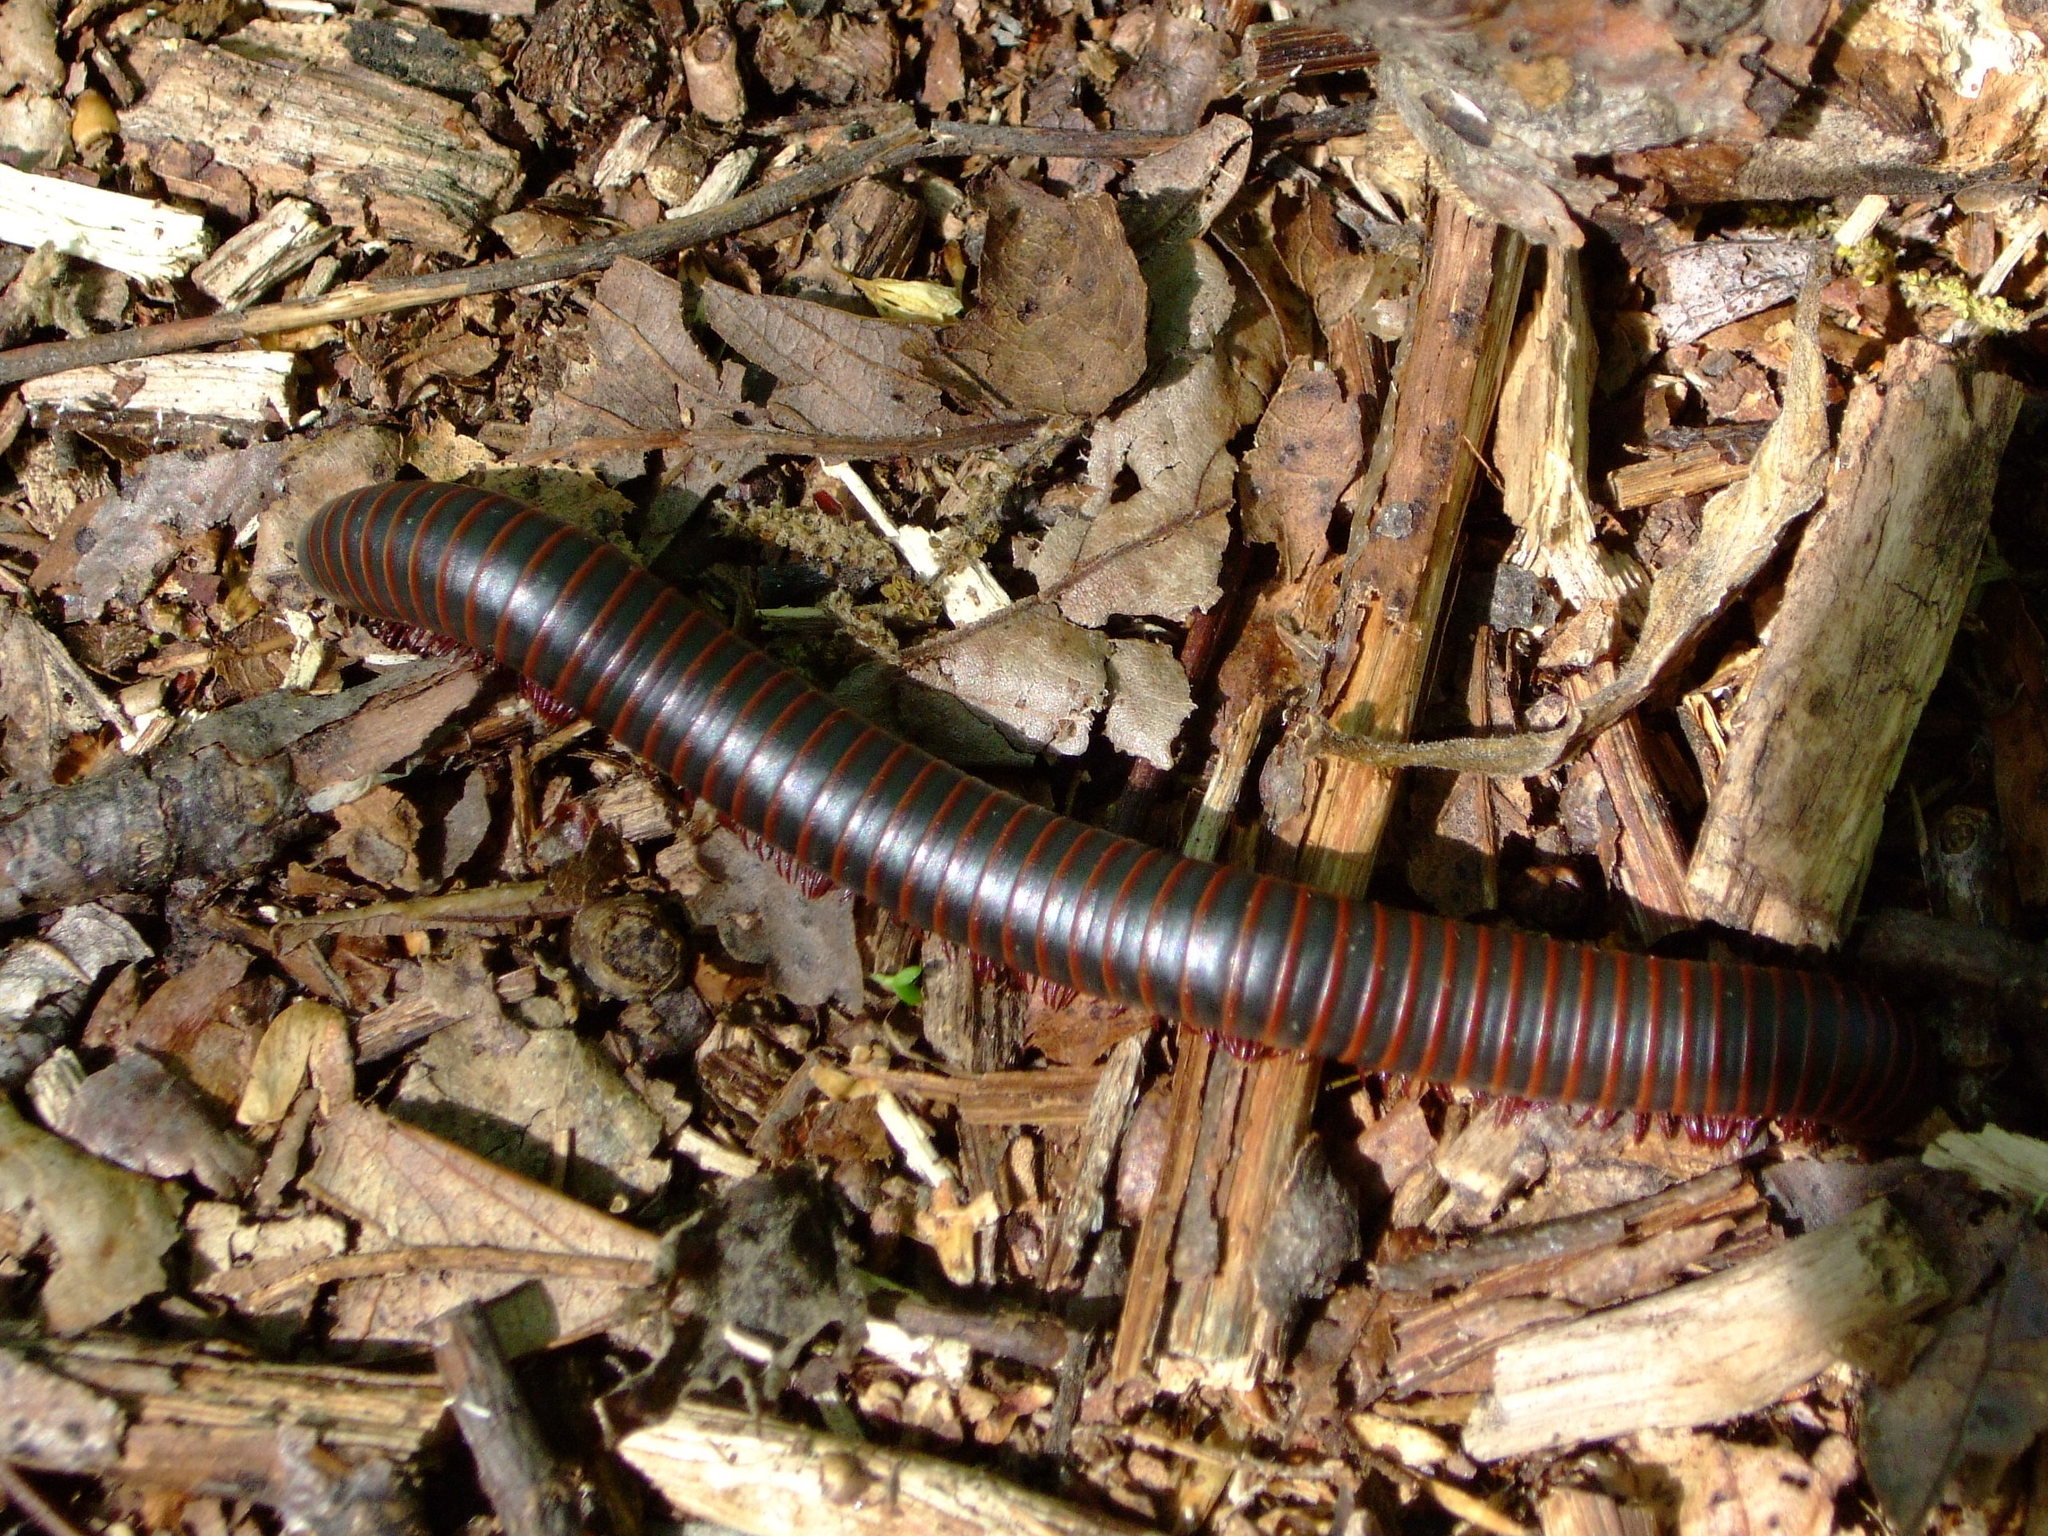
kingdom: Animalia
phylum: Arthropoda
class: Diplopoda
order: Spirobolida
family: Spirobolidae
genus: Narceus
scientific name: Narceus
